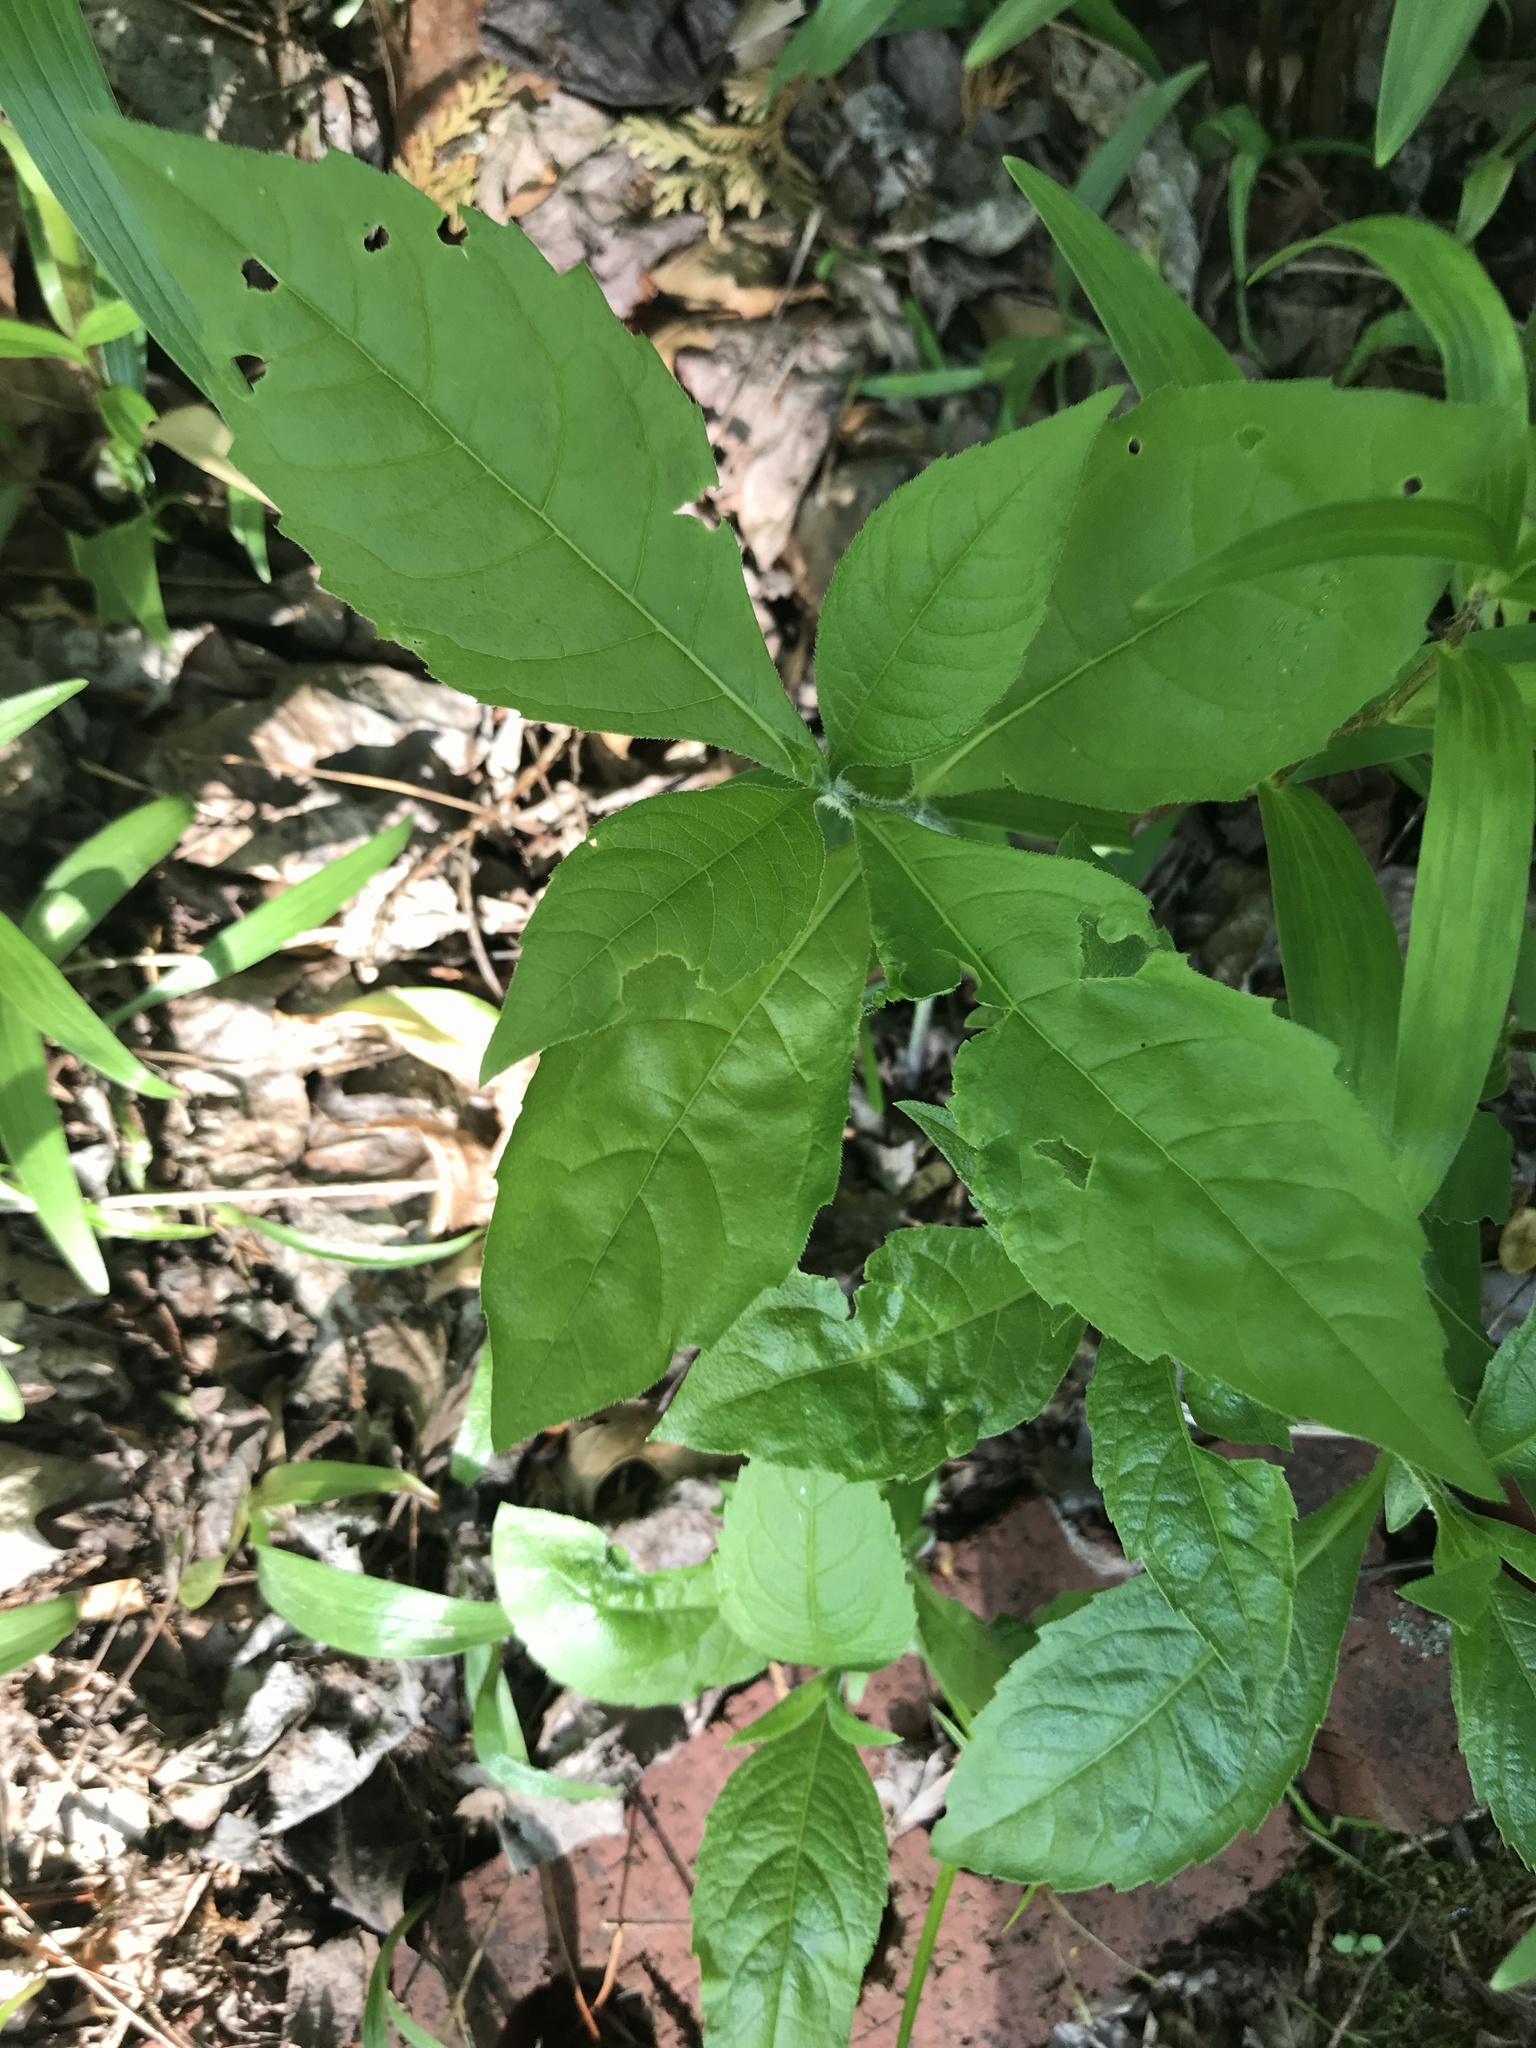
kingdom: Plantae
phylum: Tracheophyta
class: Magnoliopsida
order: Asterales
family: Asteraceae
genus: Verbesina
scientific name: Verbesina alternifolia
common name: Wingstem
